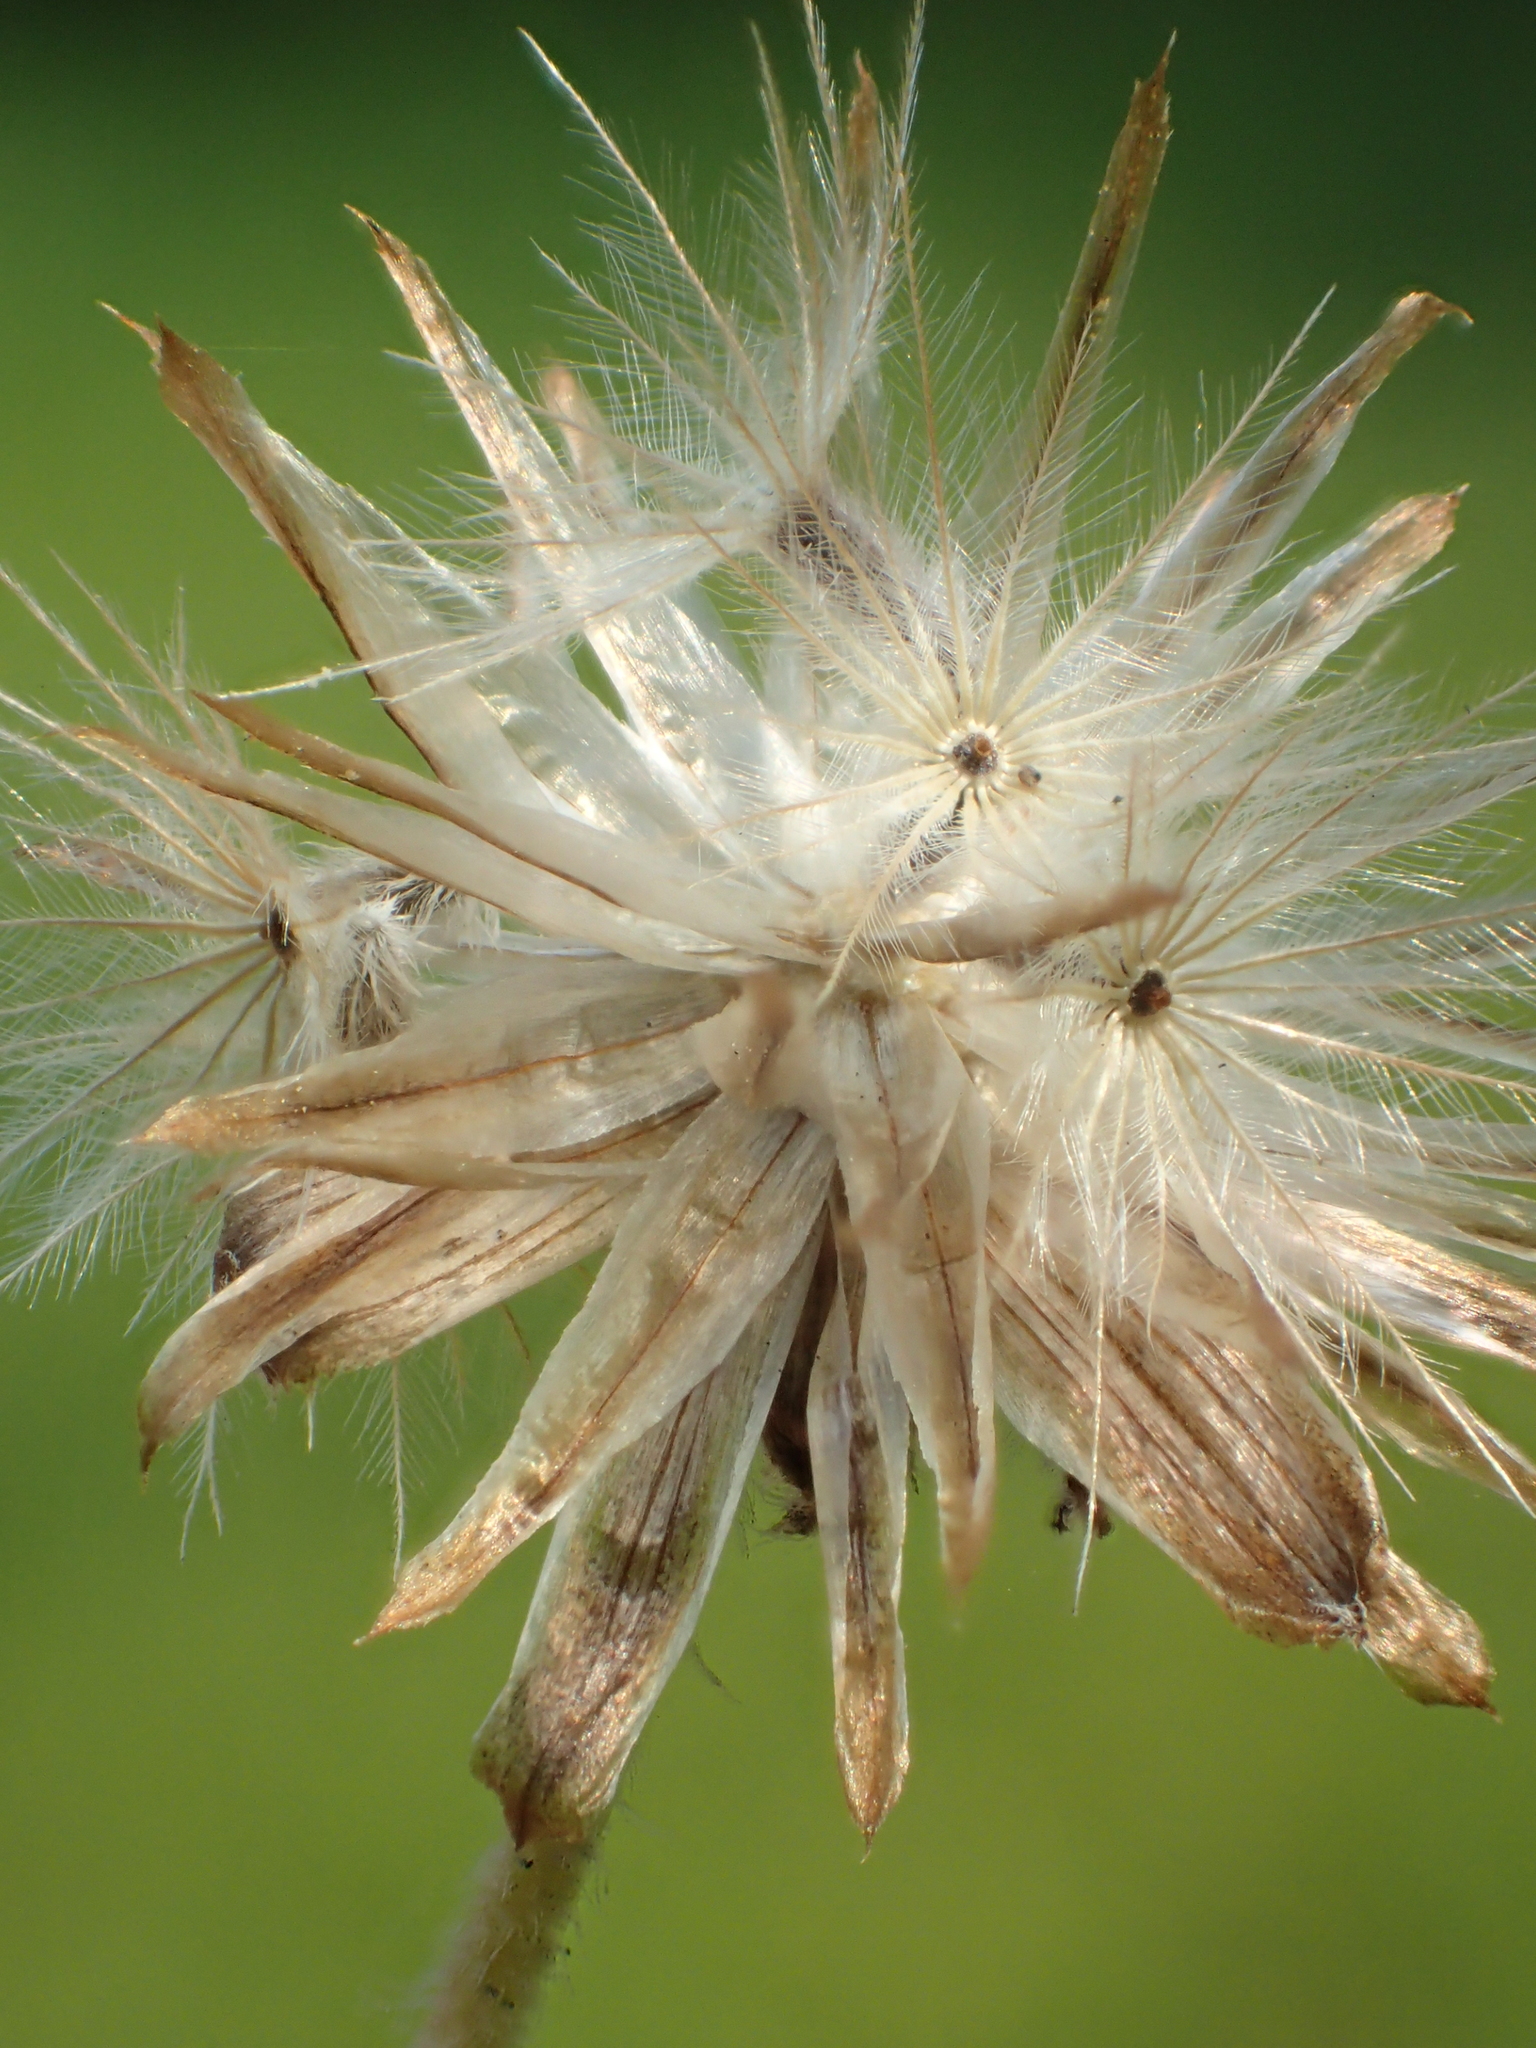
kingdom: Plantae
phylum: Tracheophyta
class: Magnoliopsida
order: Asterales
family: Asteraceae
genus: Tridax
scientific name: Tridax procumbens
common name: Coatbuttons
